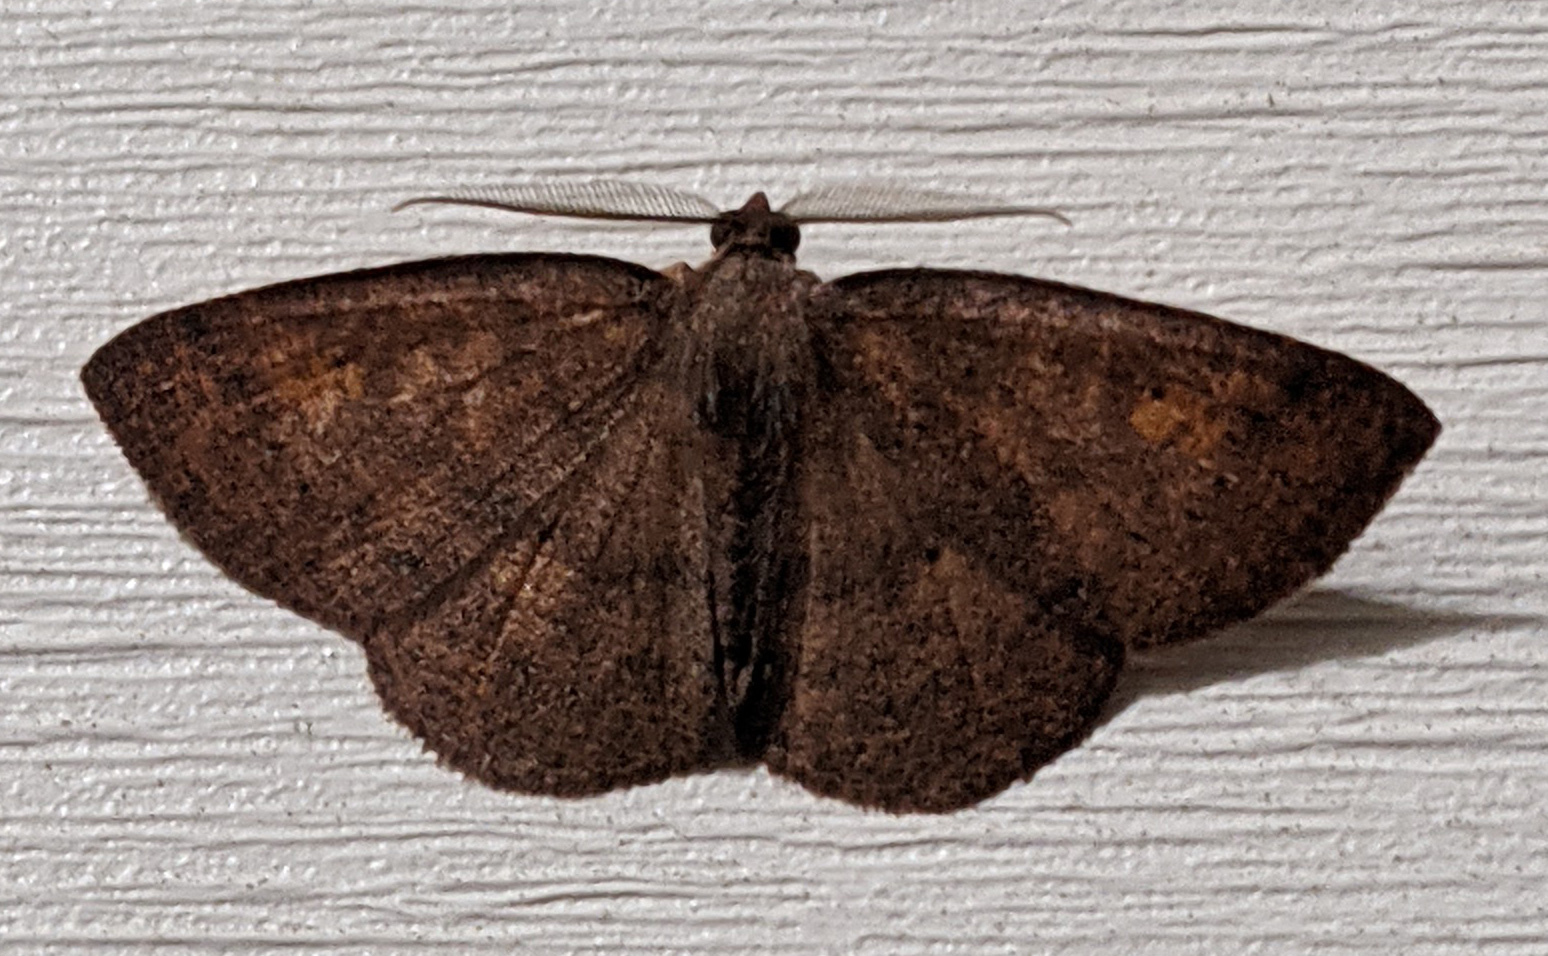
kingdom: Animalia
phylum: Arthropoda
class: Insecta
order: Lepidoptera
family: Geometridae
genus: Ilexia
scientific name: Ilexia intractata
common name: Black-dotted ruddy moth
